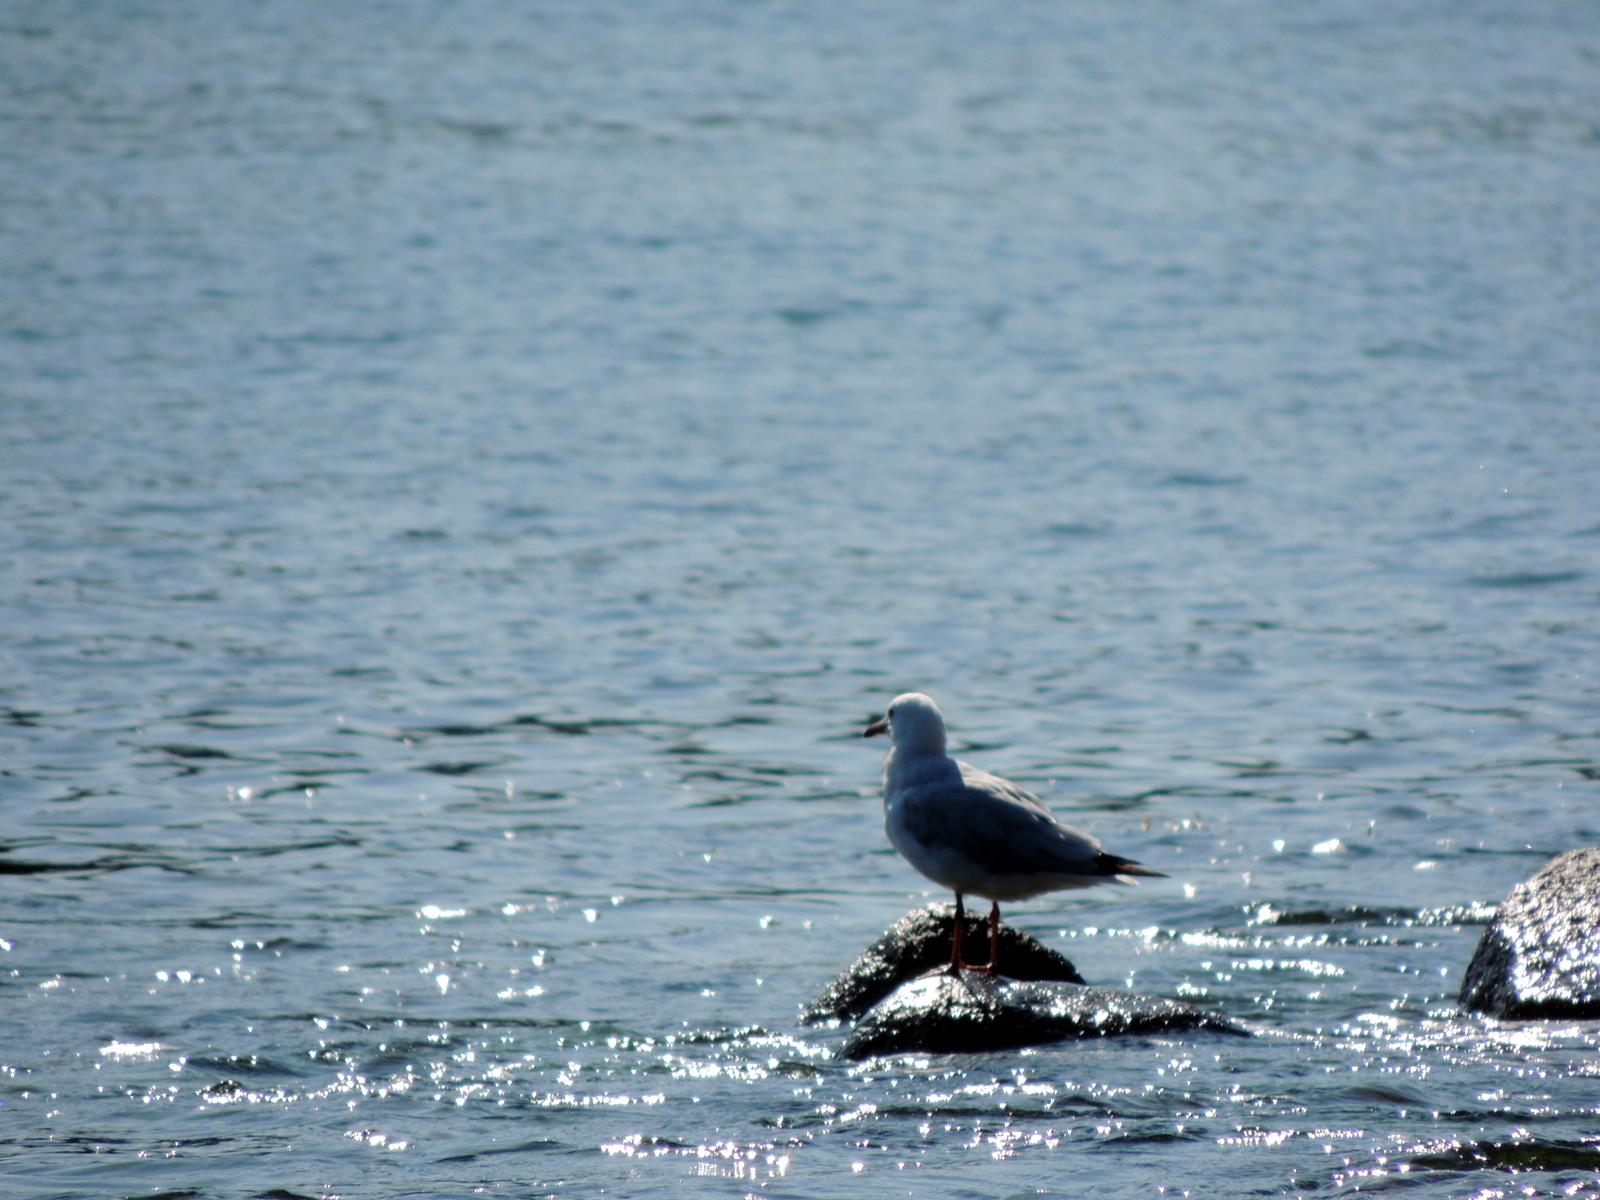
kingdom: Animalia
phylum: Chordata
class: Aves
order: Charadriiformes
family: Laridae
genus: Chroicocephalus
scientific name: Chroicocephalus novaehollandiae
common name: Silver gull
